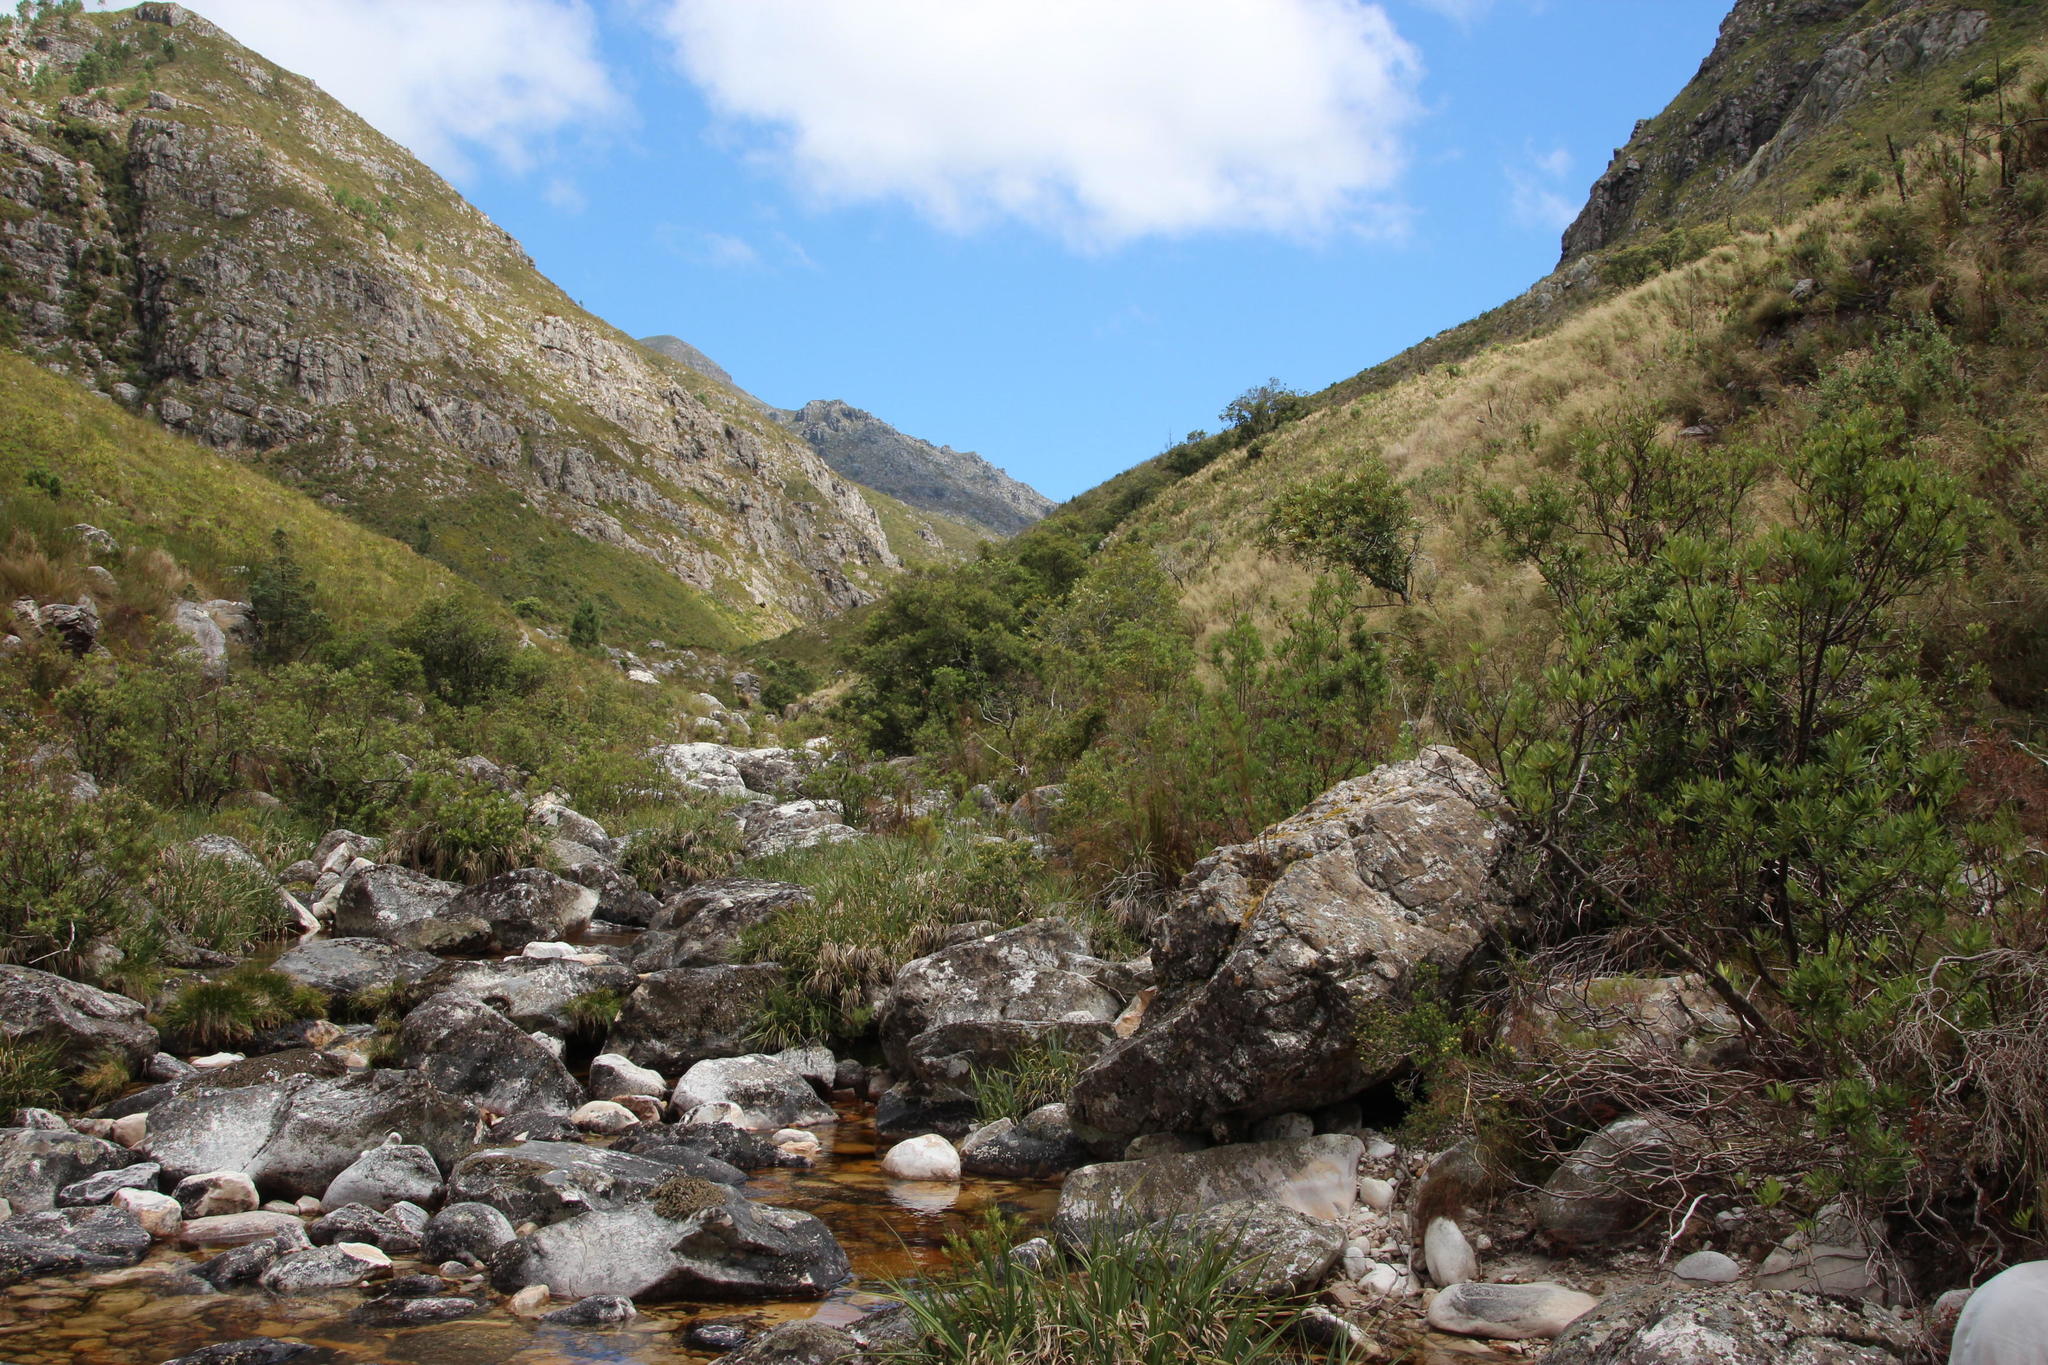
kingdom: Plantae
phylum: Tracheophyta
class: Liliopsida
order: Poales
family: Cyperaceae
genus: Isolepis
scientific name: Isolepis digitata
